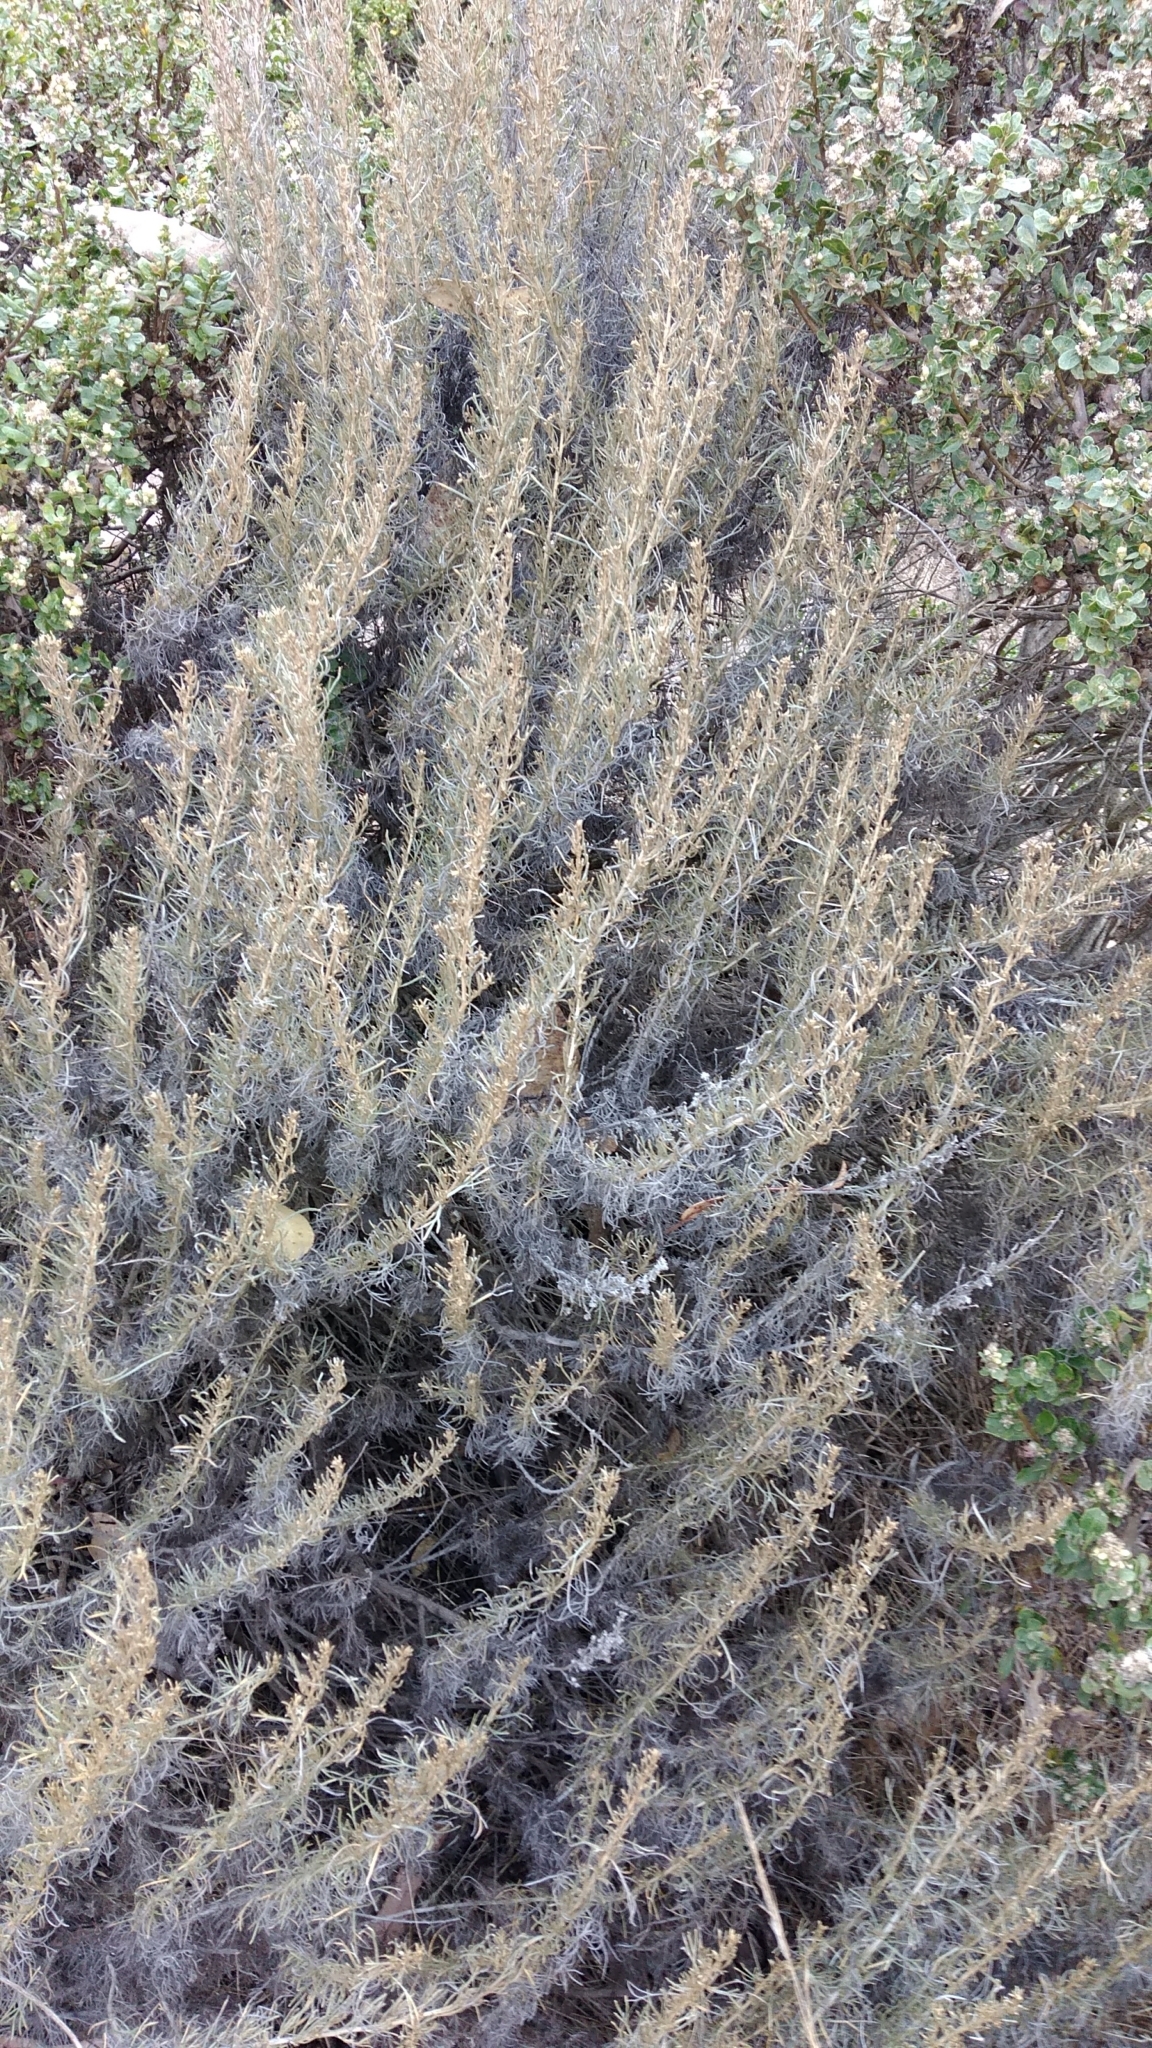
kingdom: Plantae
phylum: Tracheophyta
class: Magnoliopsida
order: Asterales
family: Asteraceae
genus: Artemisia
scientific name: Artemisia californica
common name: California sagebrush
